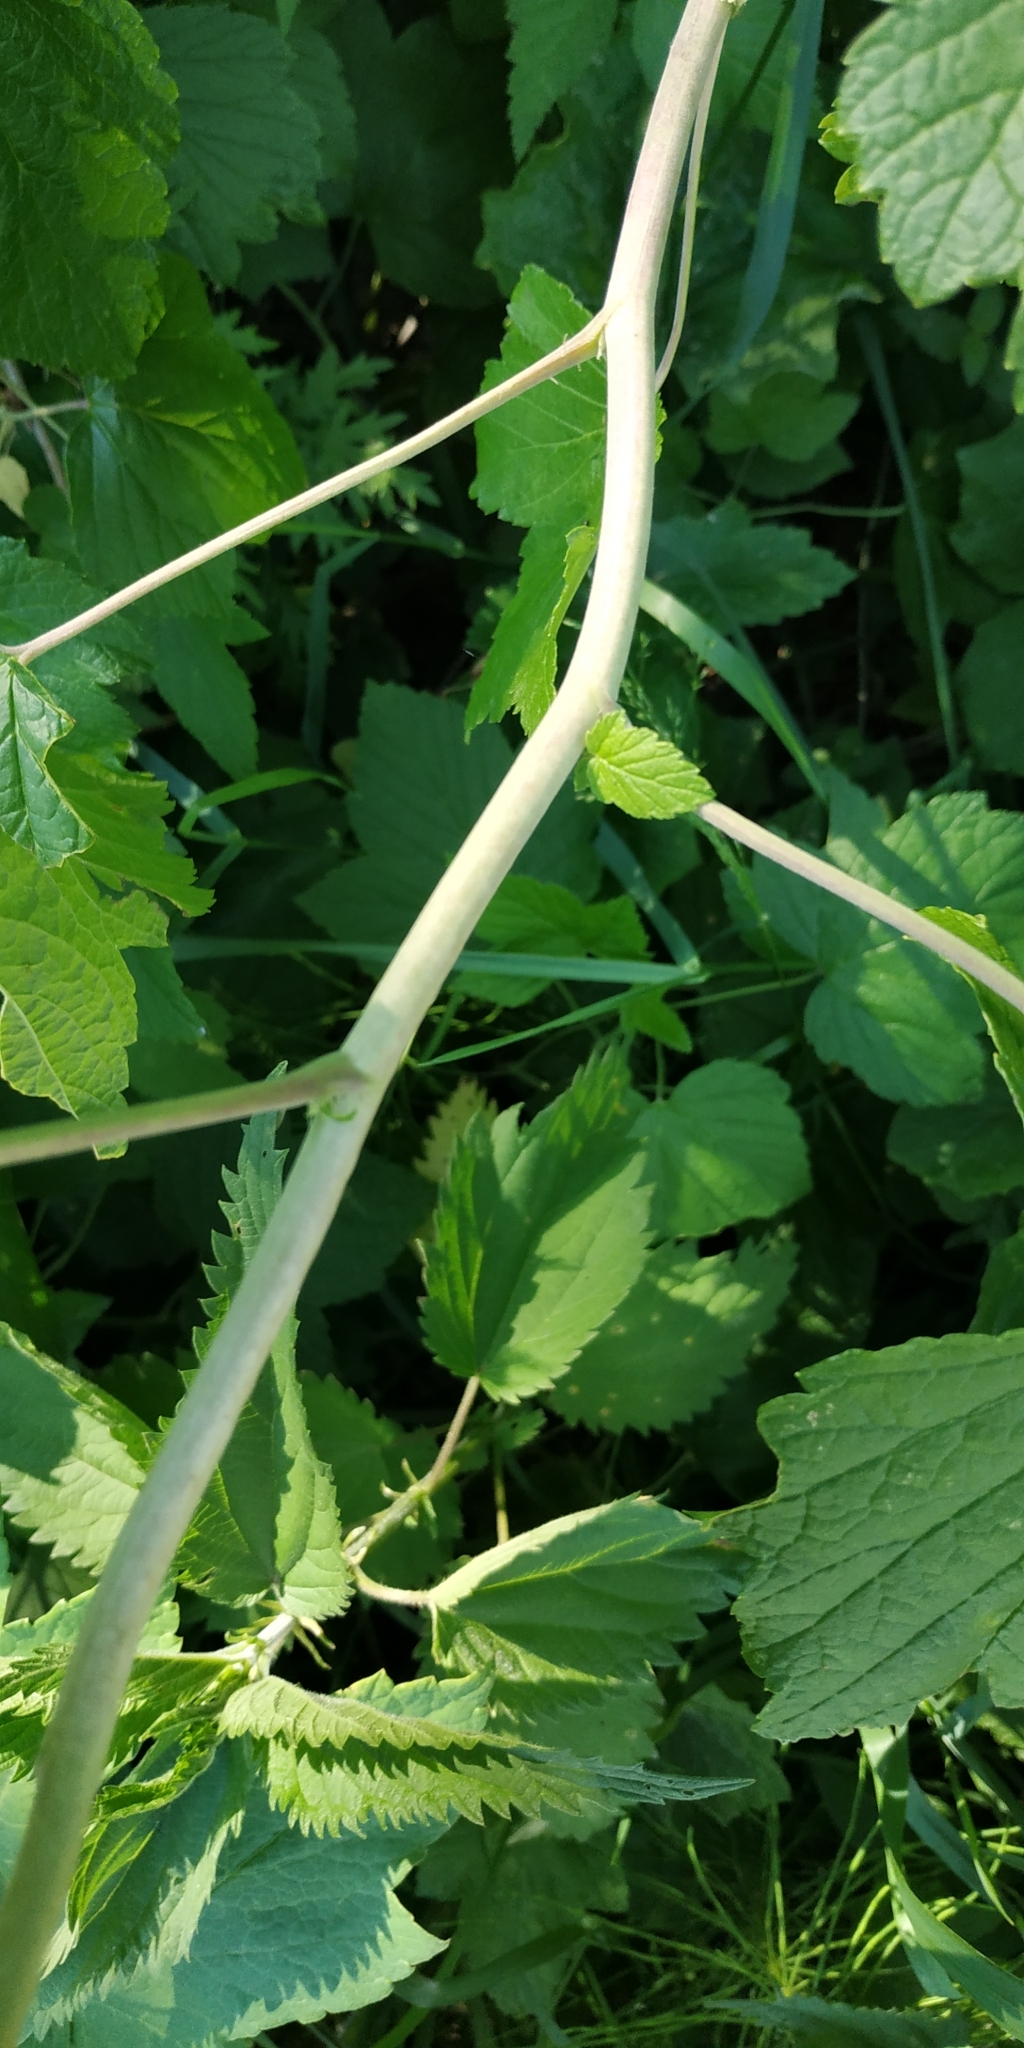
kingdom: Plantae
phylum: Tracheophyta
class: Magnoliopsida
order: Saxifragales
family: Grossulariaceae
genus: Ribes
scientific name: Ribes nigrum
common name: Black currant
